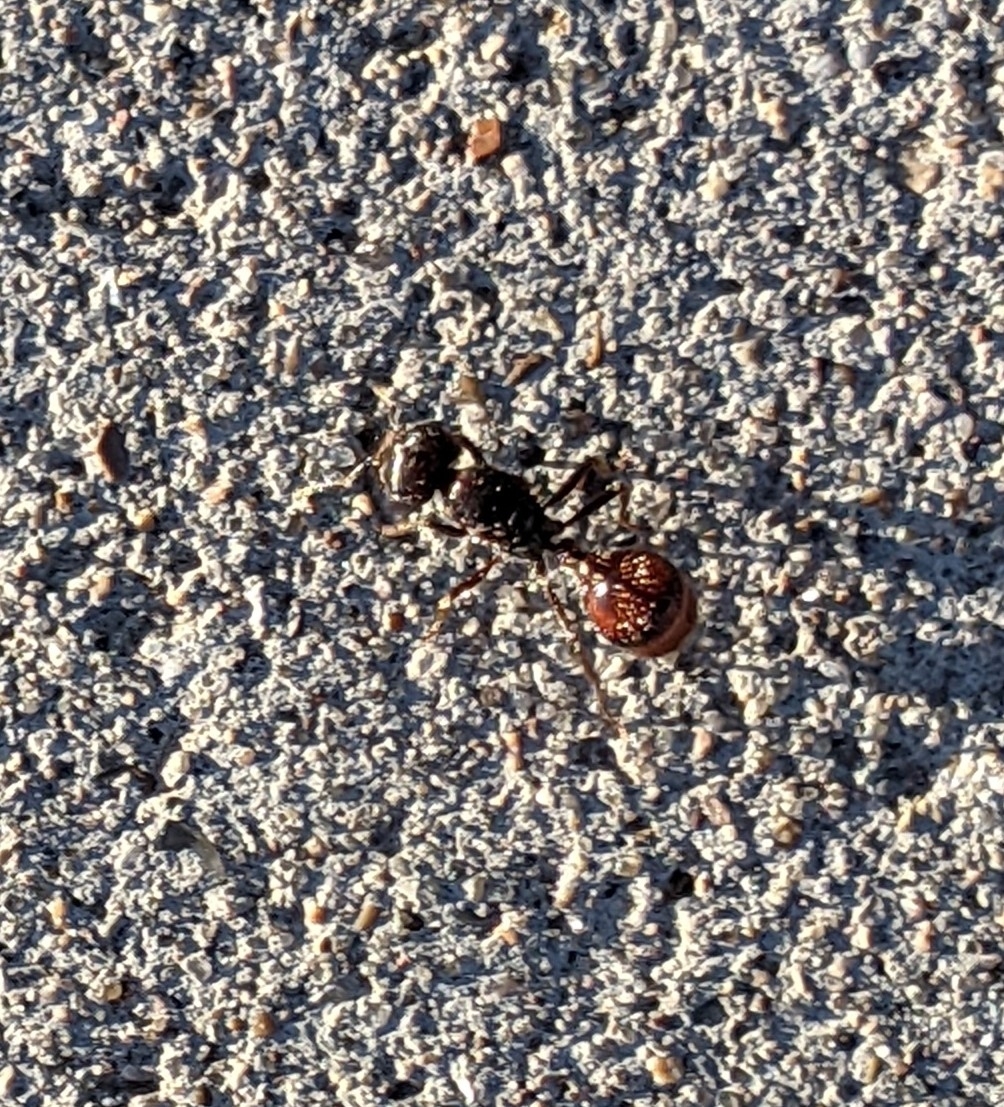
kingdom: Animalia
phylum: Arthropoda
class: Insecta
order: Hymenoptera
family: Formicidae
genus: Pogonomyrmex
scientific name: Pogonomyrmex rugosus
